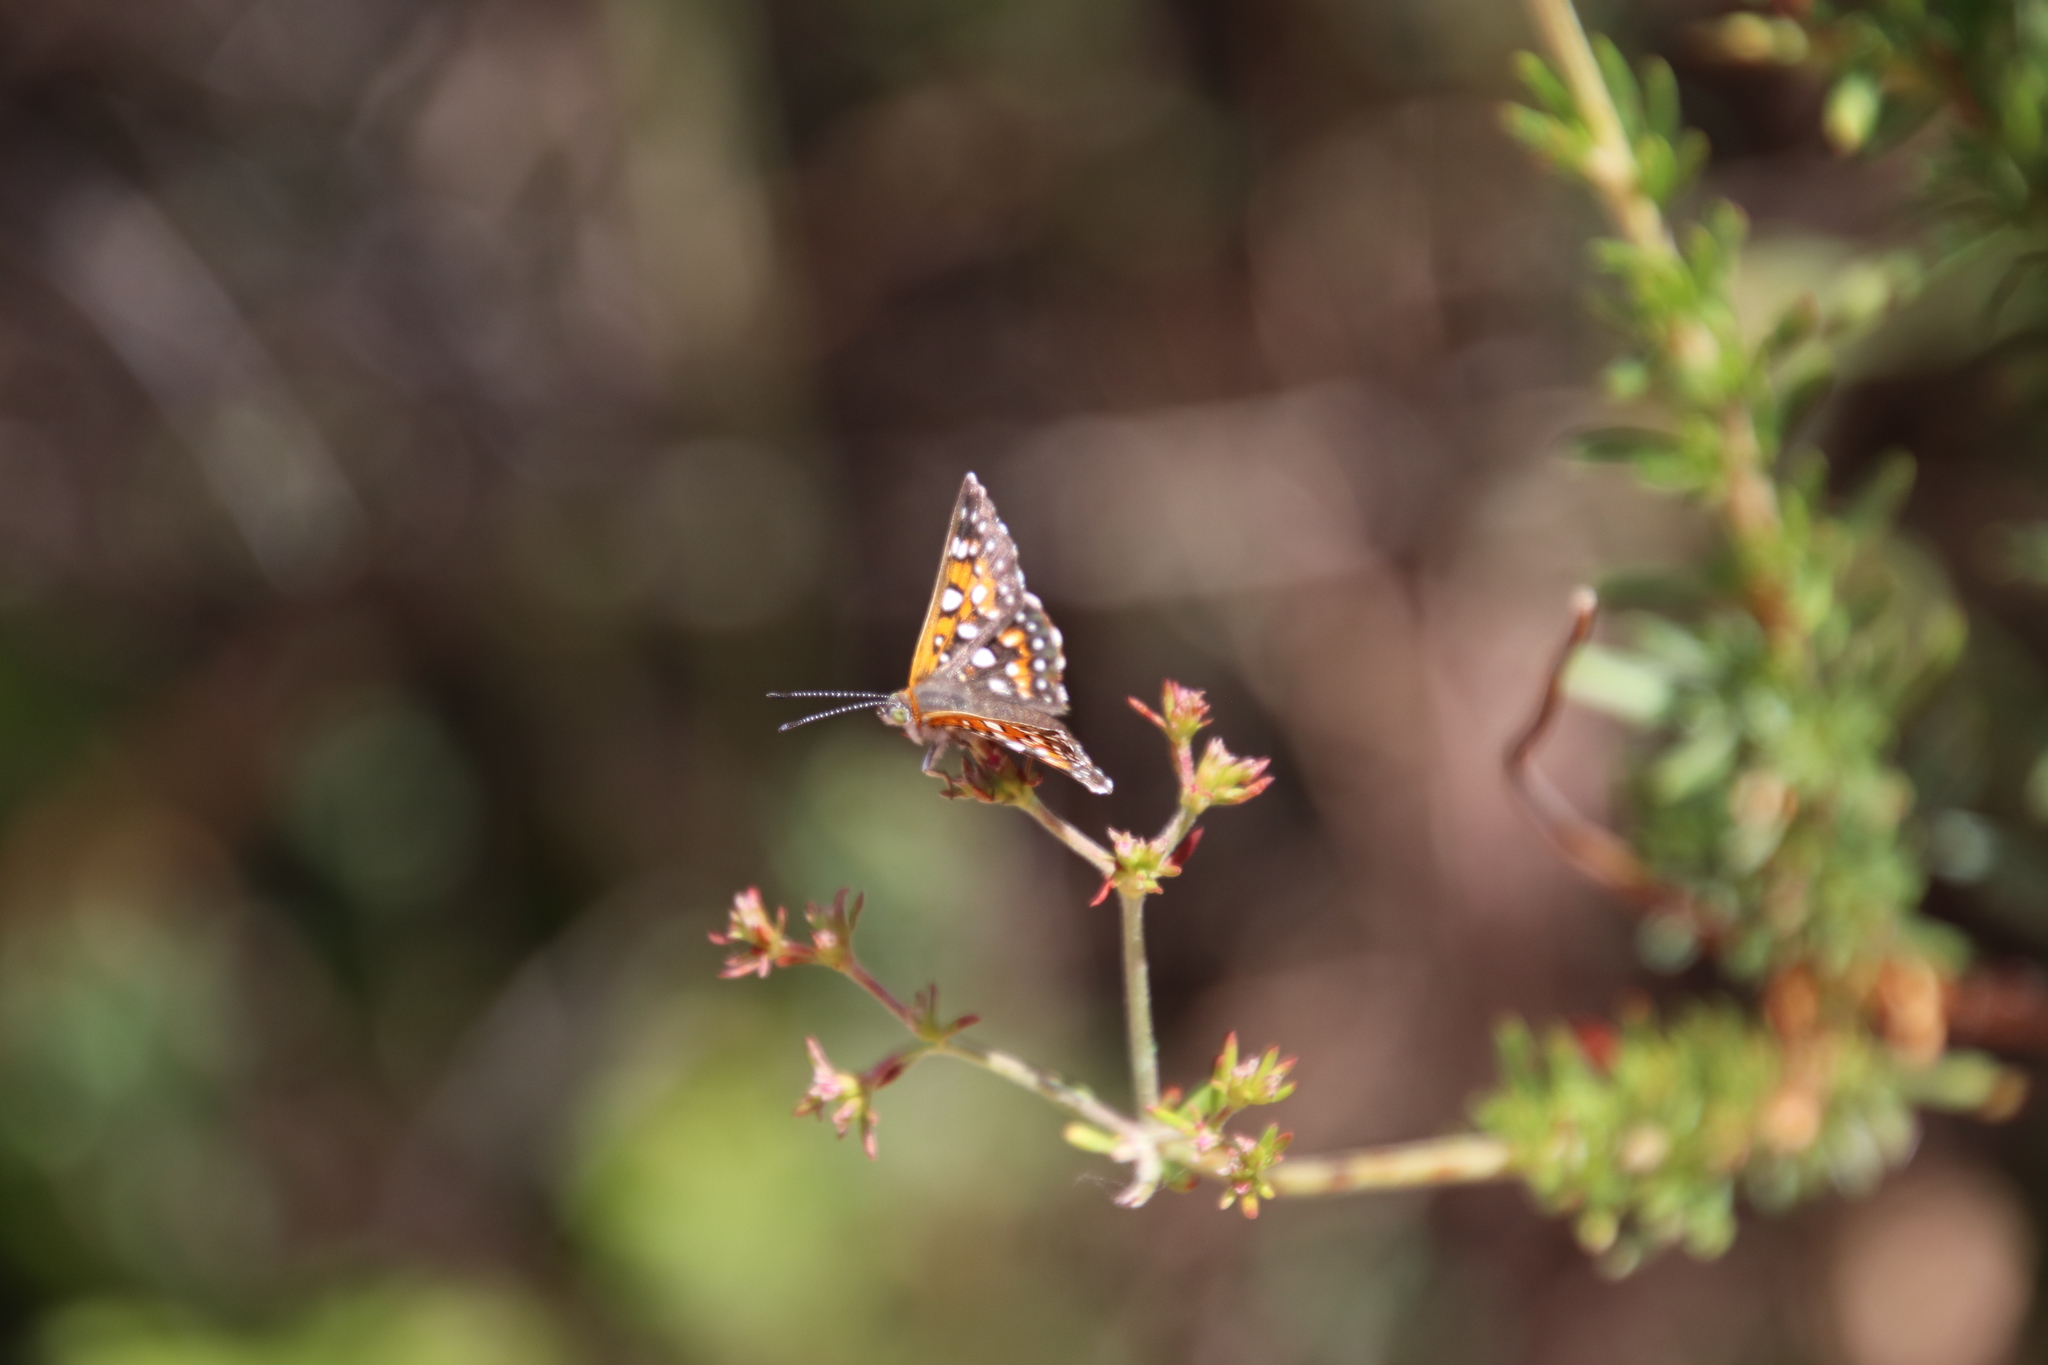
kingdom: Animalia
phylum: Arthropoda
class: Insecta
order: Lepidoptera
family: Riodinidae
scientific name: Riodinidae
